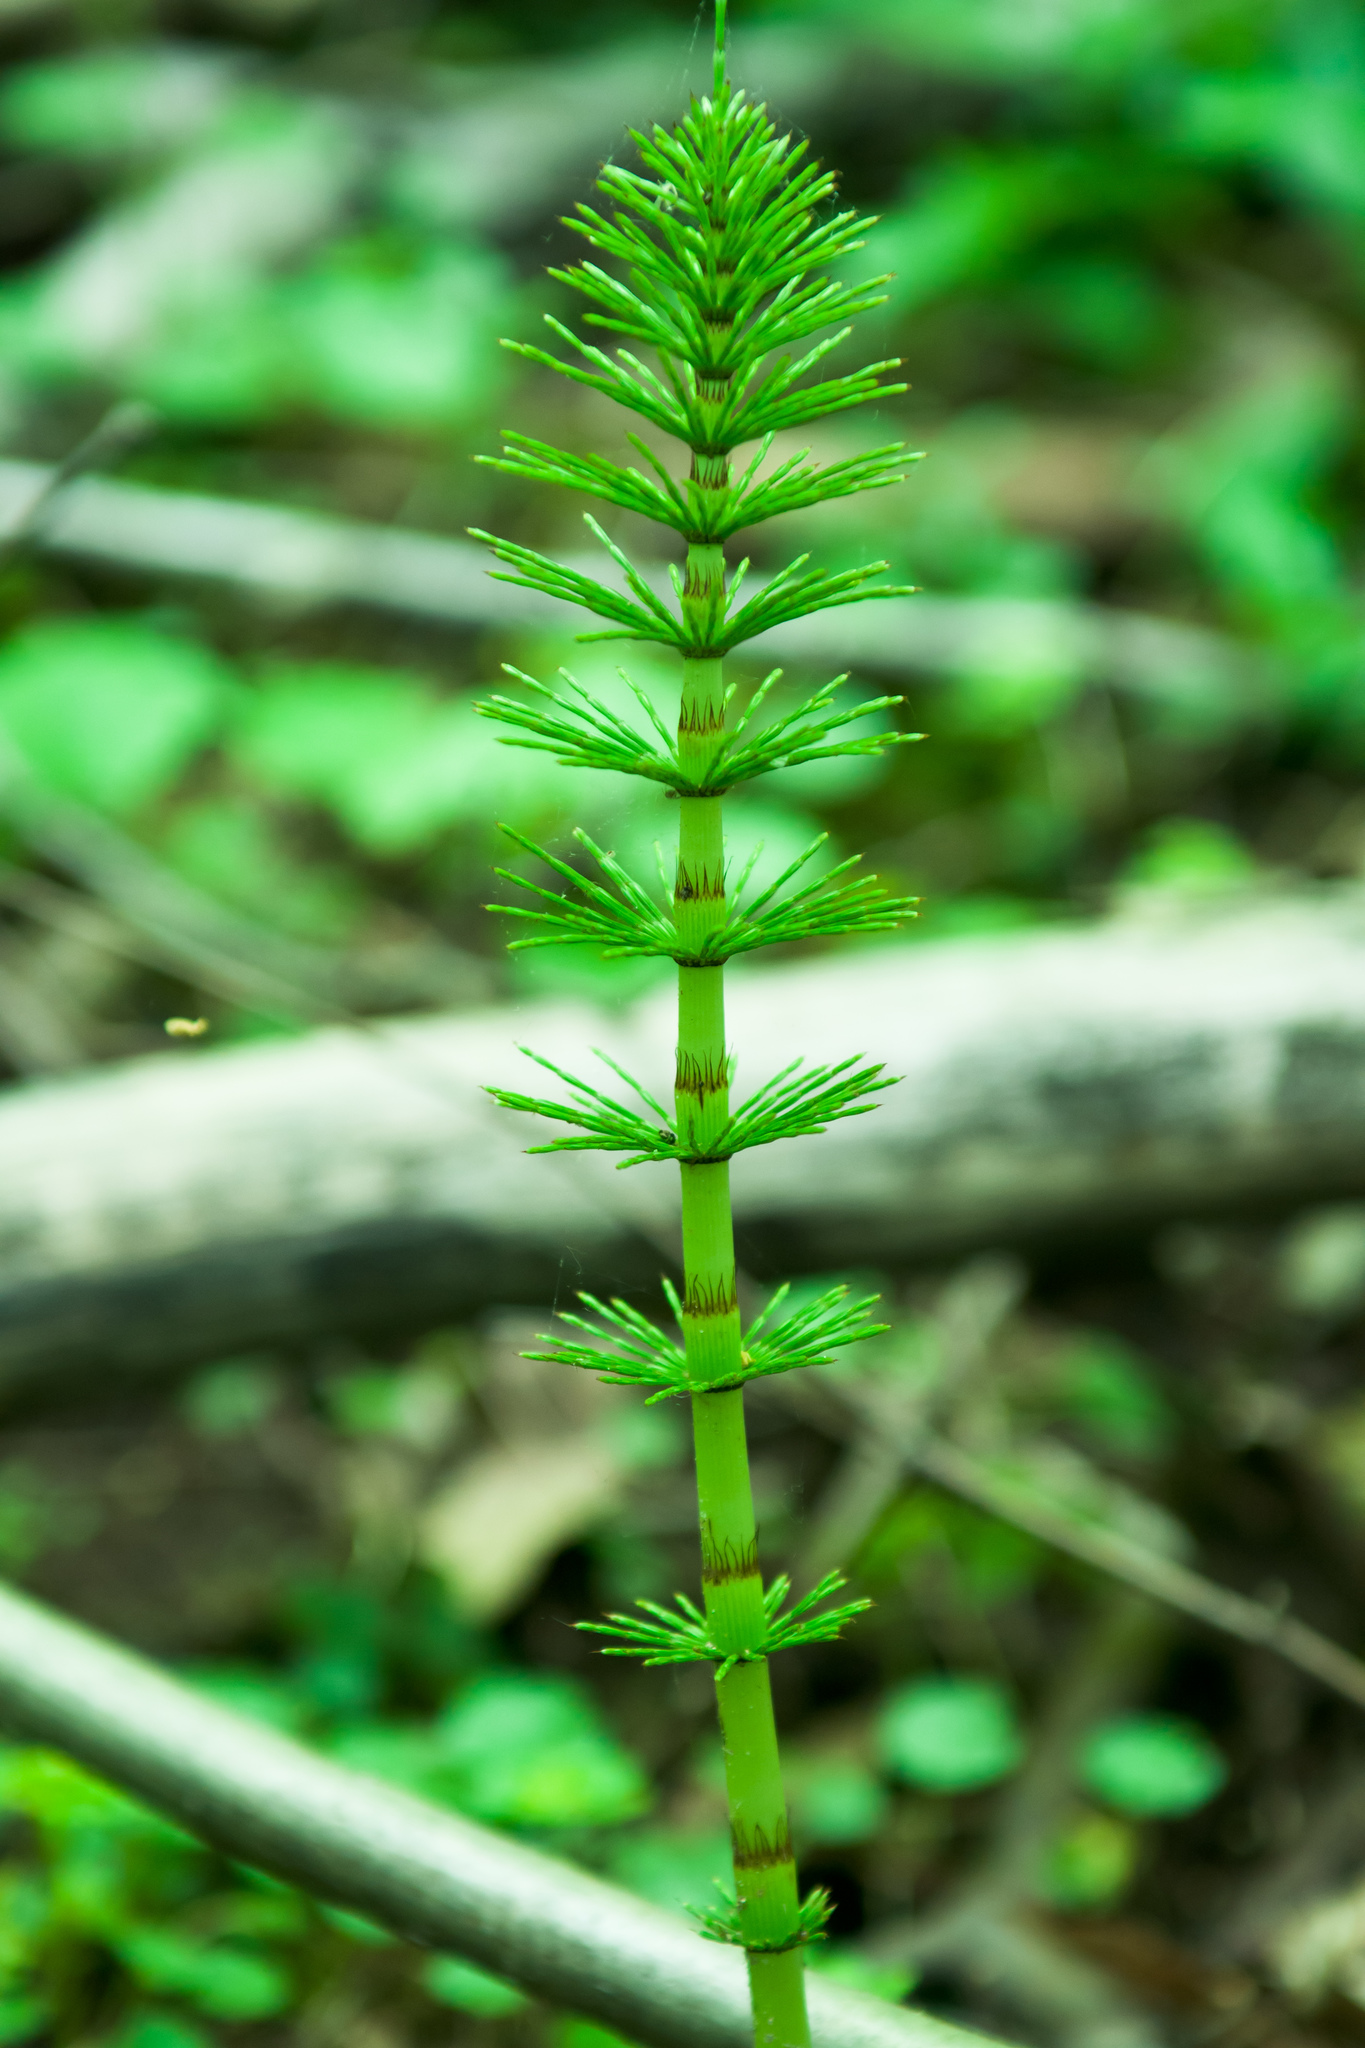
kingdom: Plantae
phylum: Tracheophyta
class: Polypodiopsida
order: Equisetales
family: Equisetaceae
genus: Equisetum
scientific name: Equisetum telmateia
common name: Great horsetail
